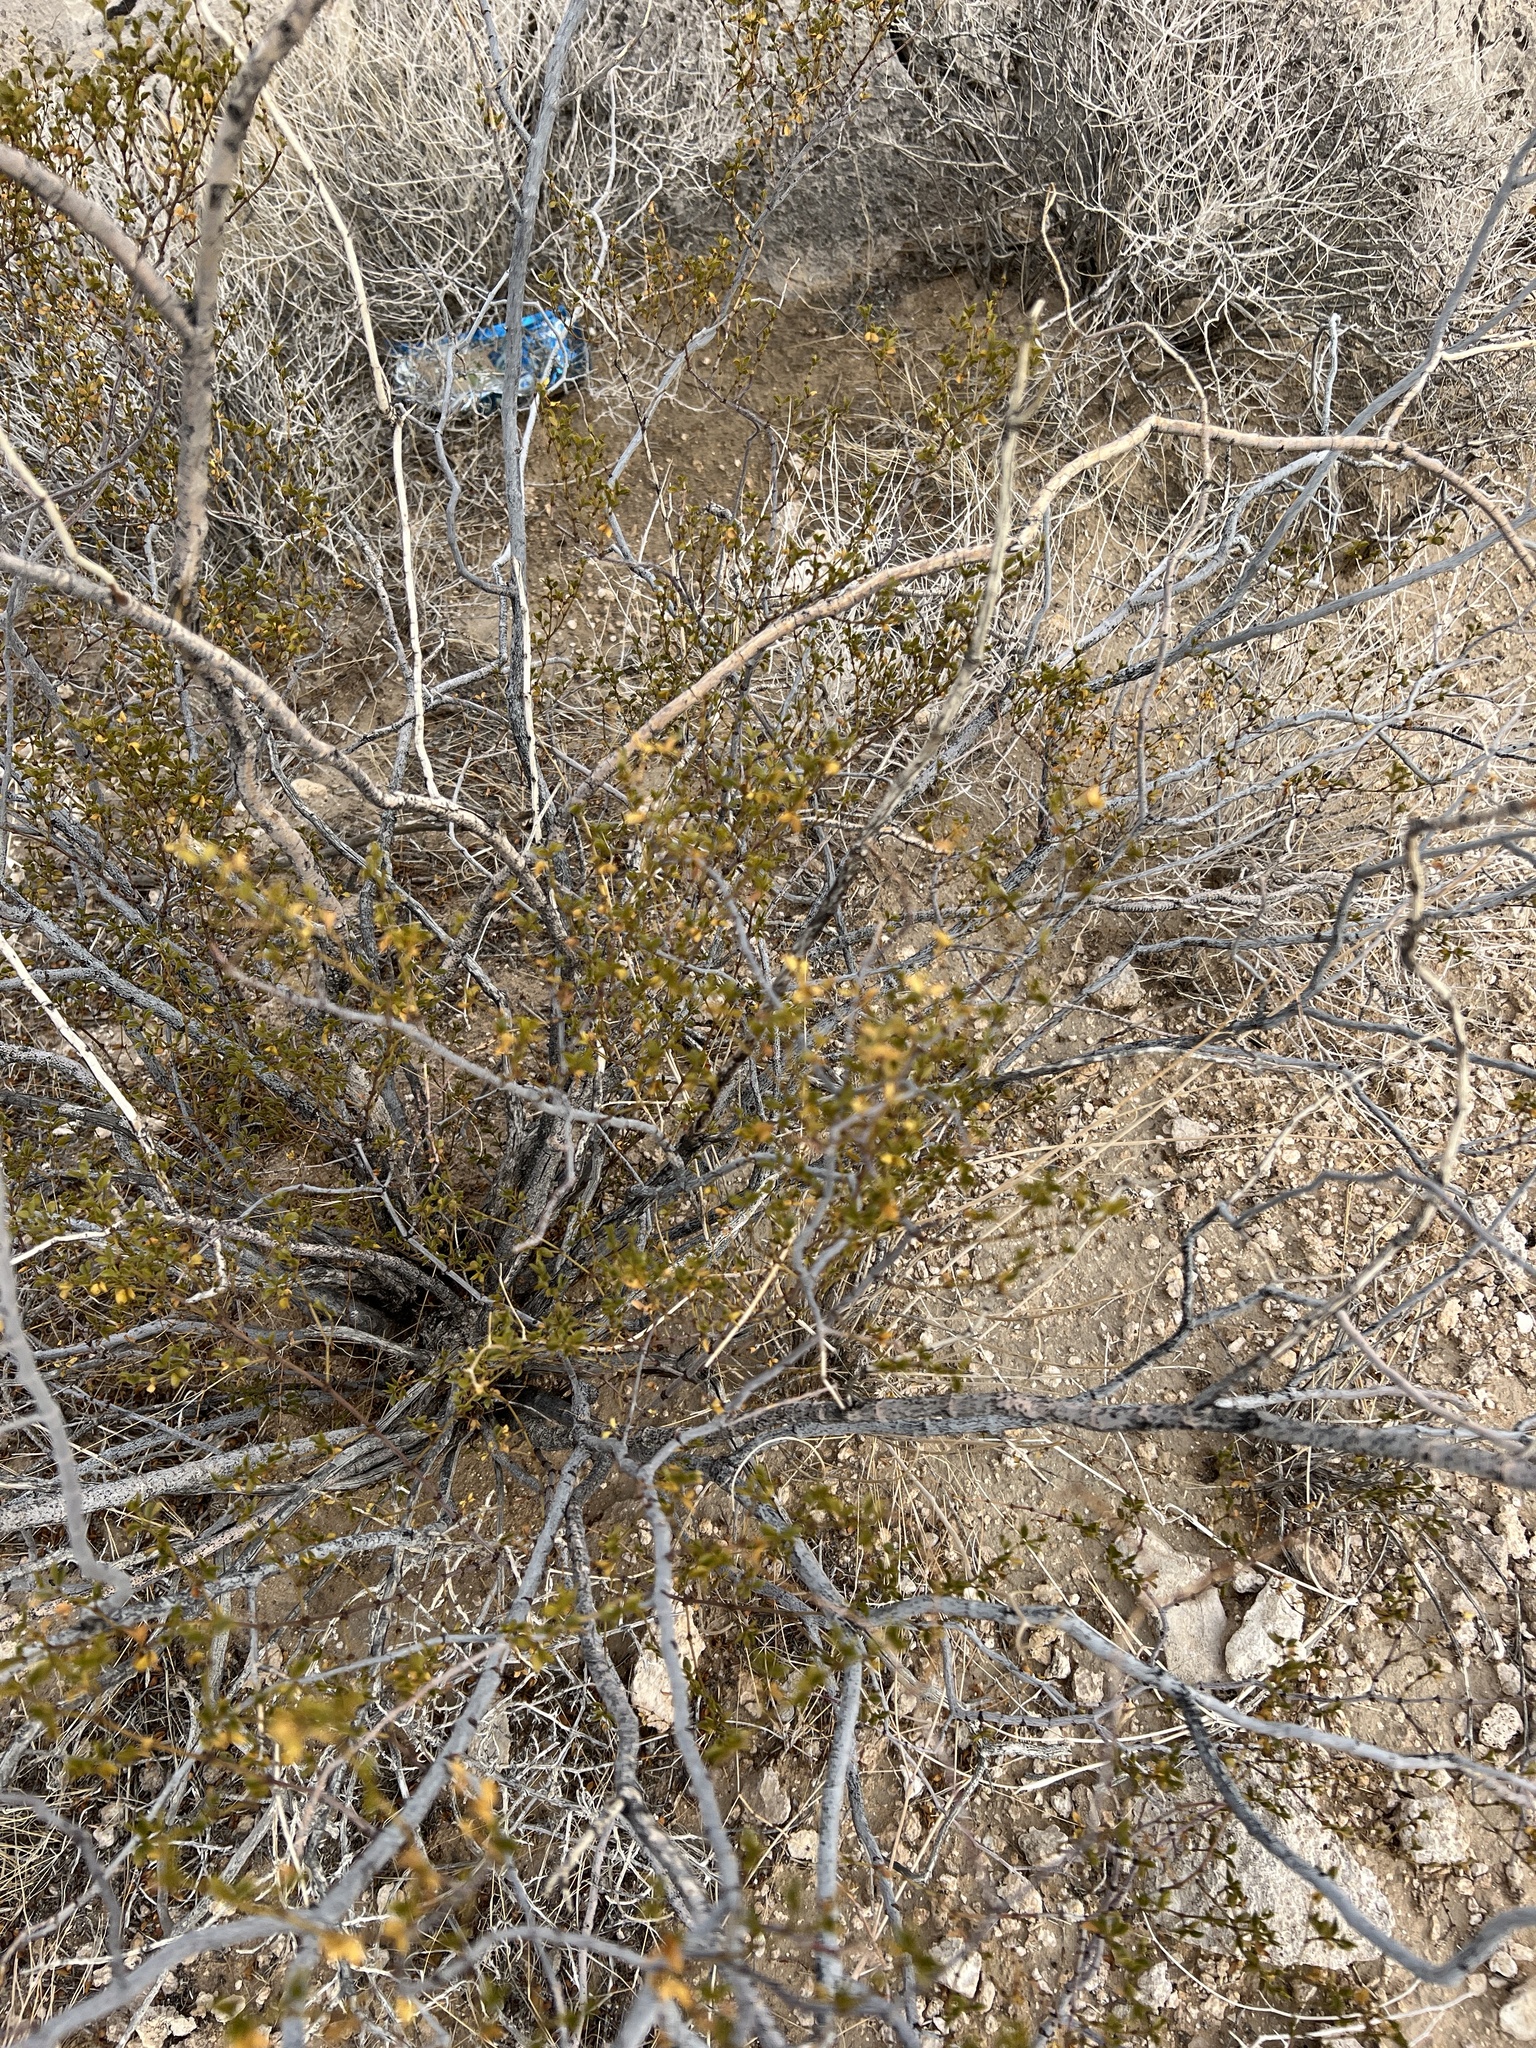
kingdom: Plantae
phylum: Tracheophyta
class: Magnoliopsida
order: Zygophyllales
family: Zygophyllaceae
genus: Larrea
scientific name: Larrea tridentata
